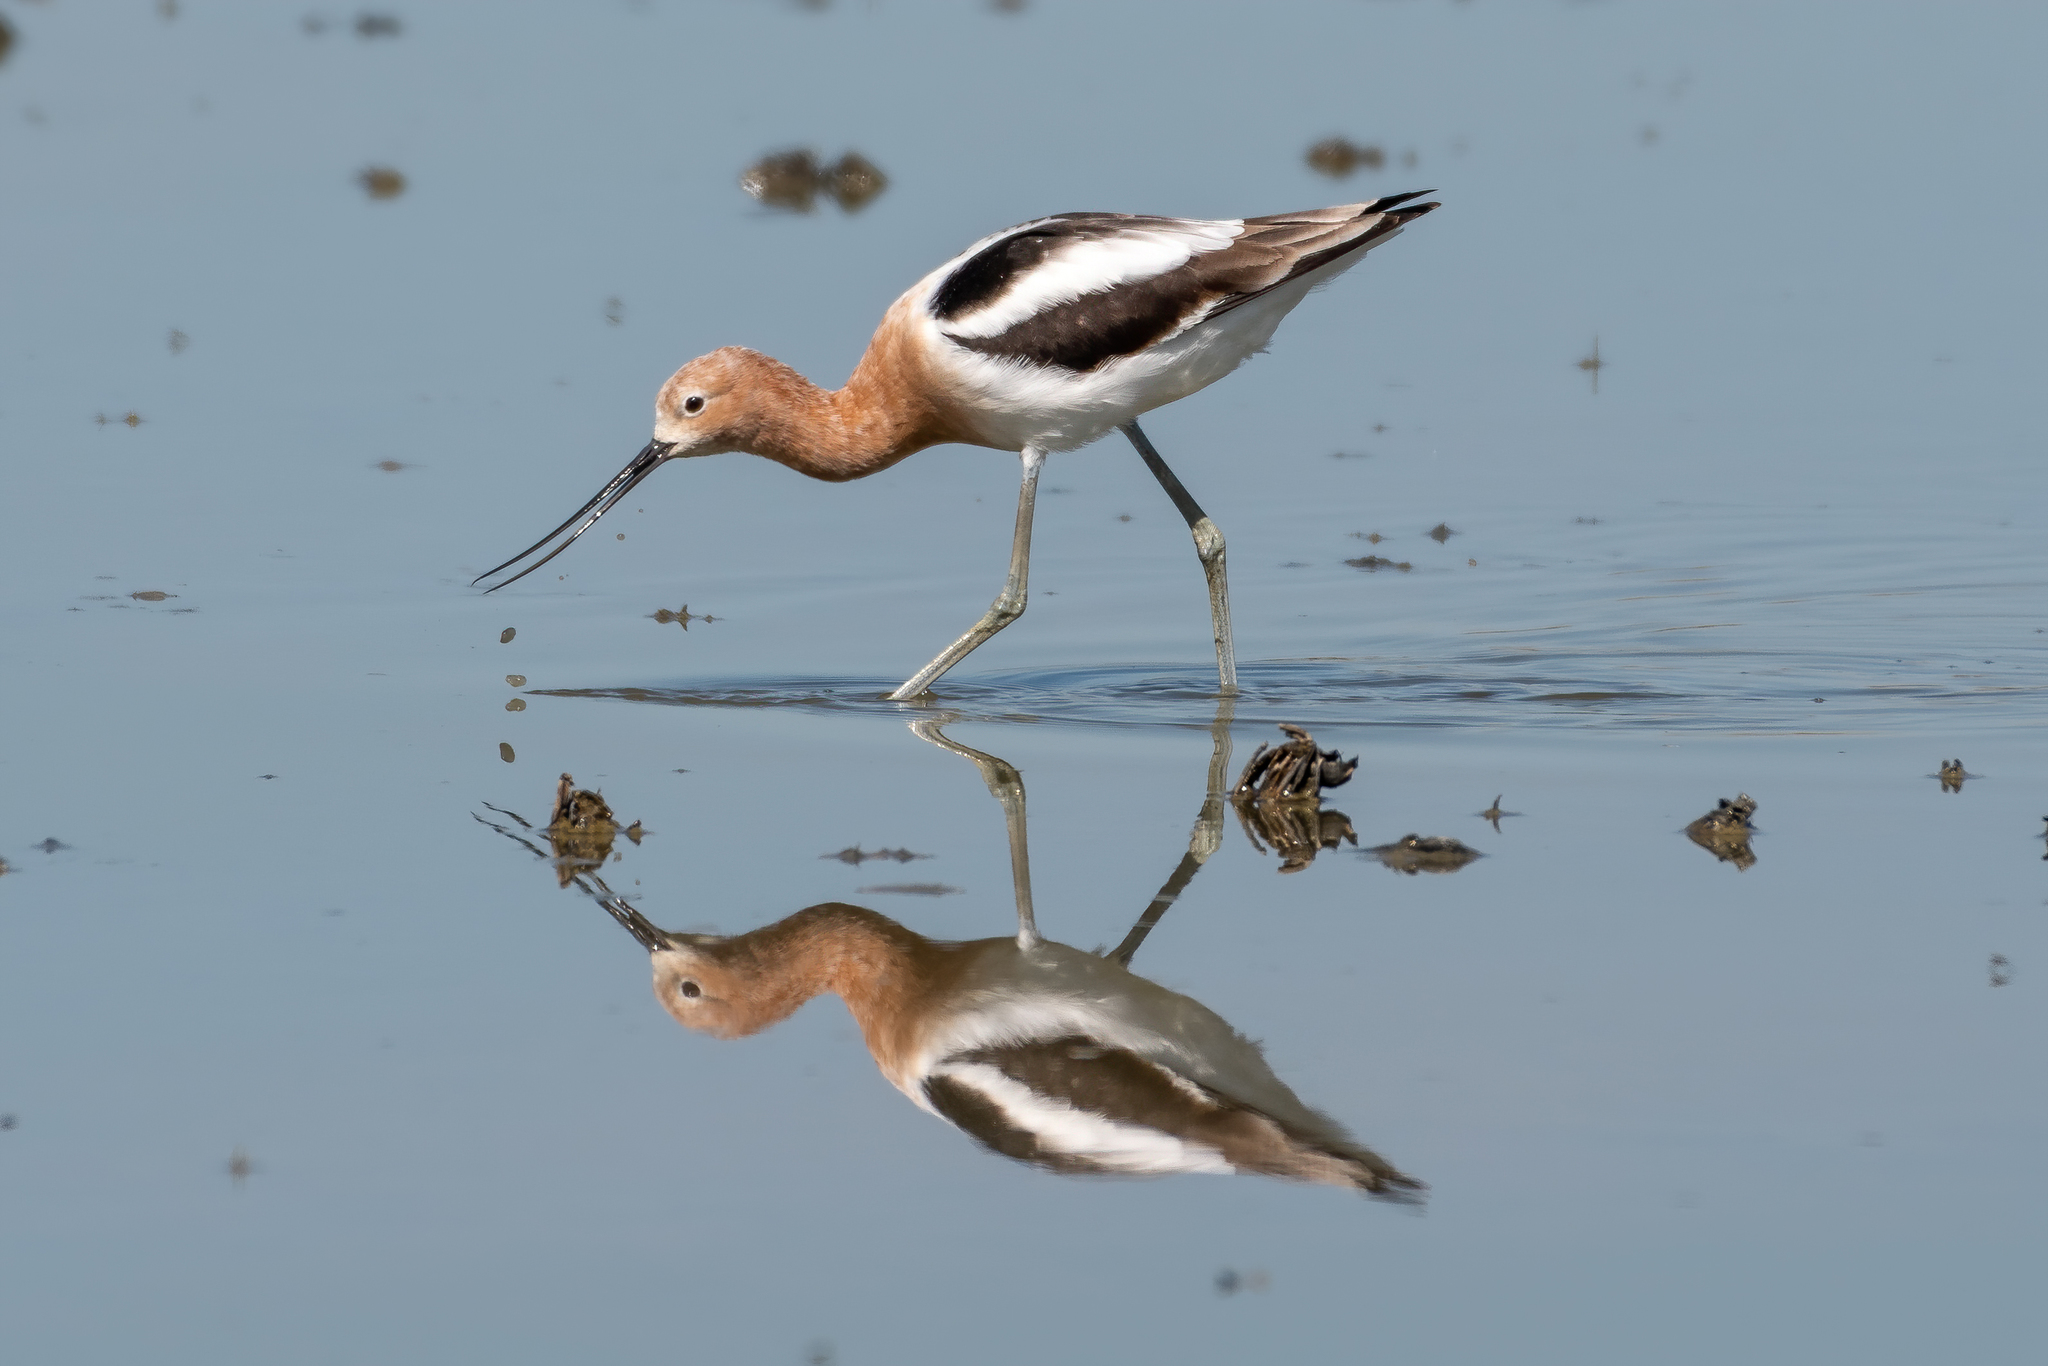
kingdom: Animalia
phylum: Chordata
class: Aves
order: Charadriiformes
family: Recurvirostridae
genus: Recurvirostra
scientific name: Recurvirostra americana
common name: American avocet
